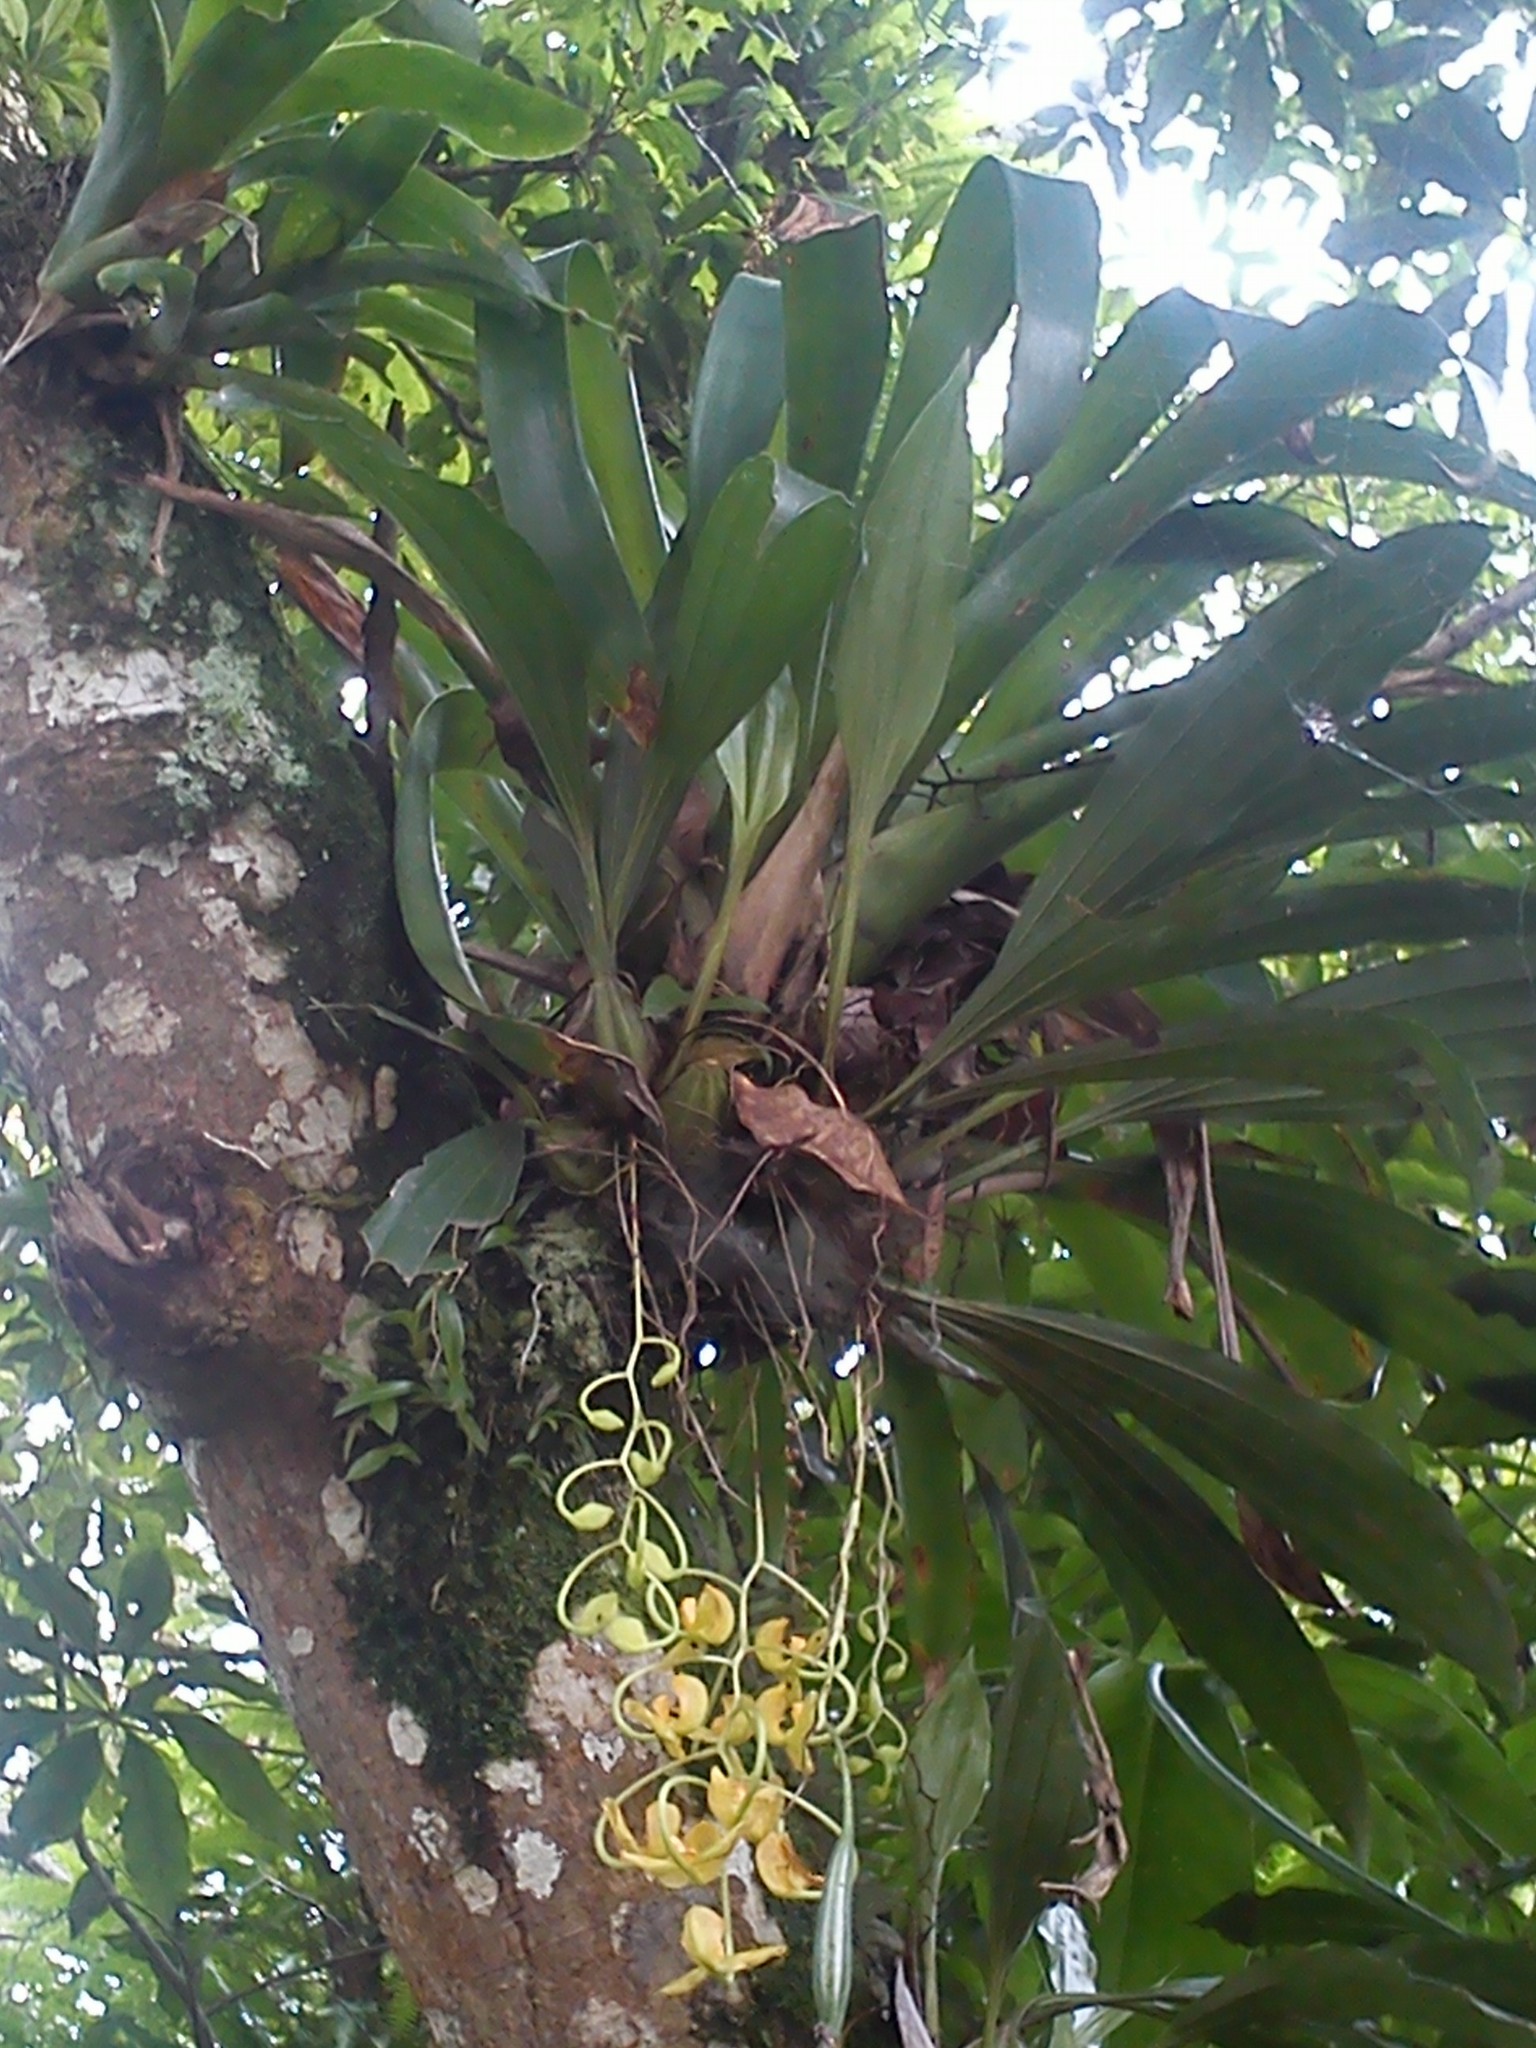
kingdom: Plantae
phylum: Tracheophyta
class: Liliopsida
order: Asparagales
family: Orchidaceae
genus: Gongora
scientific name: Gongora galeata
